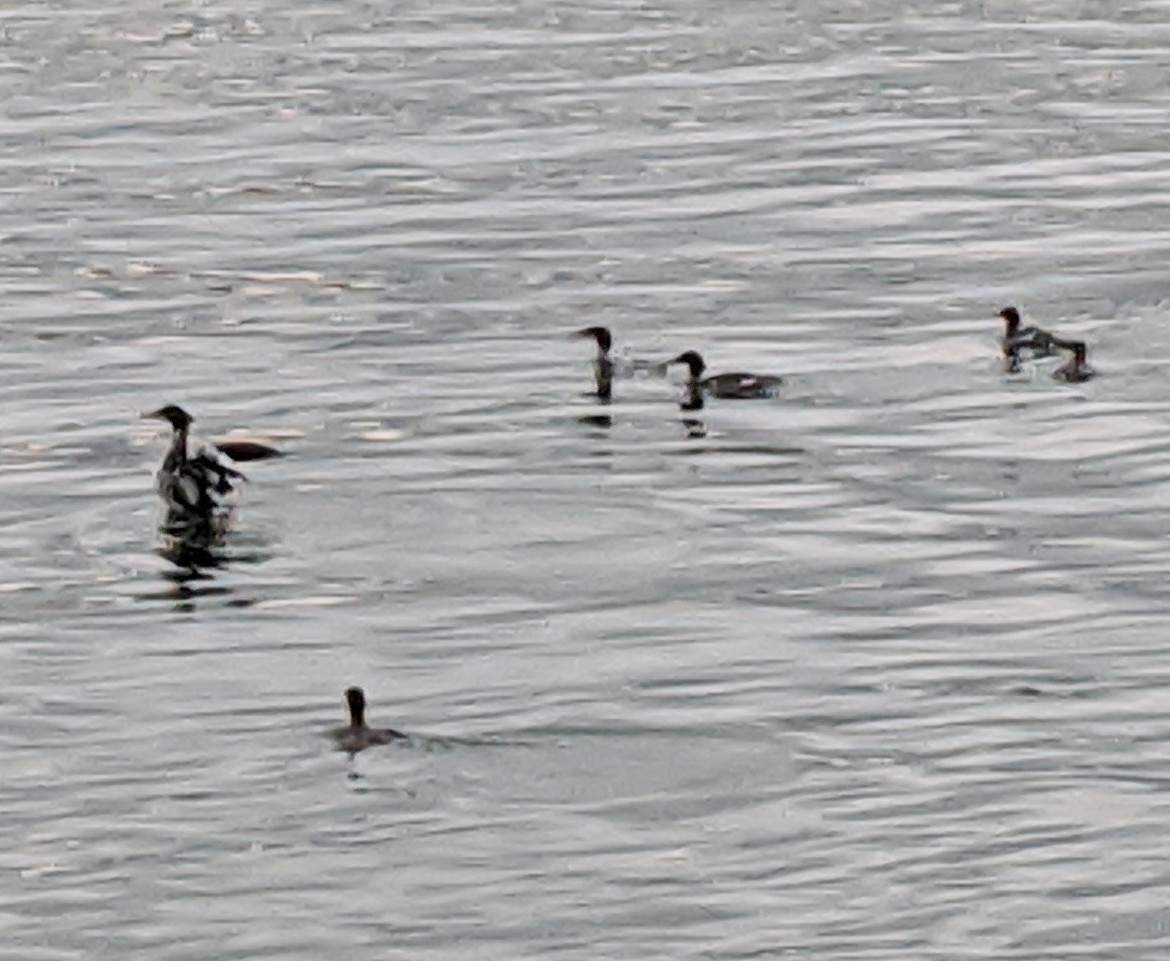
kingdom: Animalia
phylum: Chordata
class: Aves
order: Anseriformes
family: Anatidae
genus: Mergus
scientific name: Mergus serrator
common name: Red-breasted merganser
